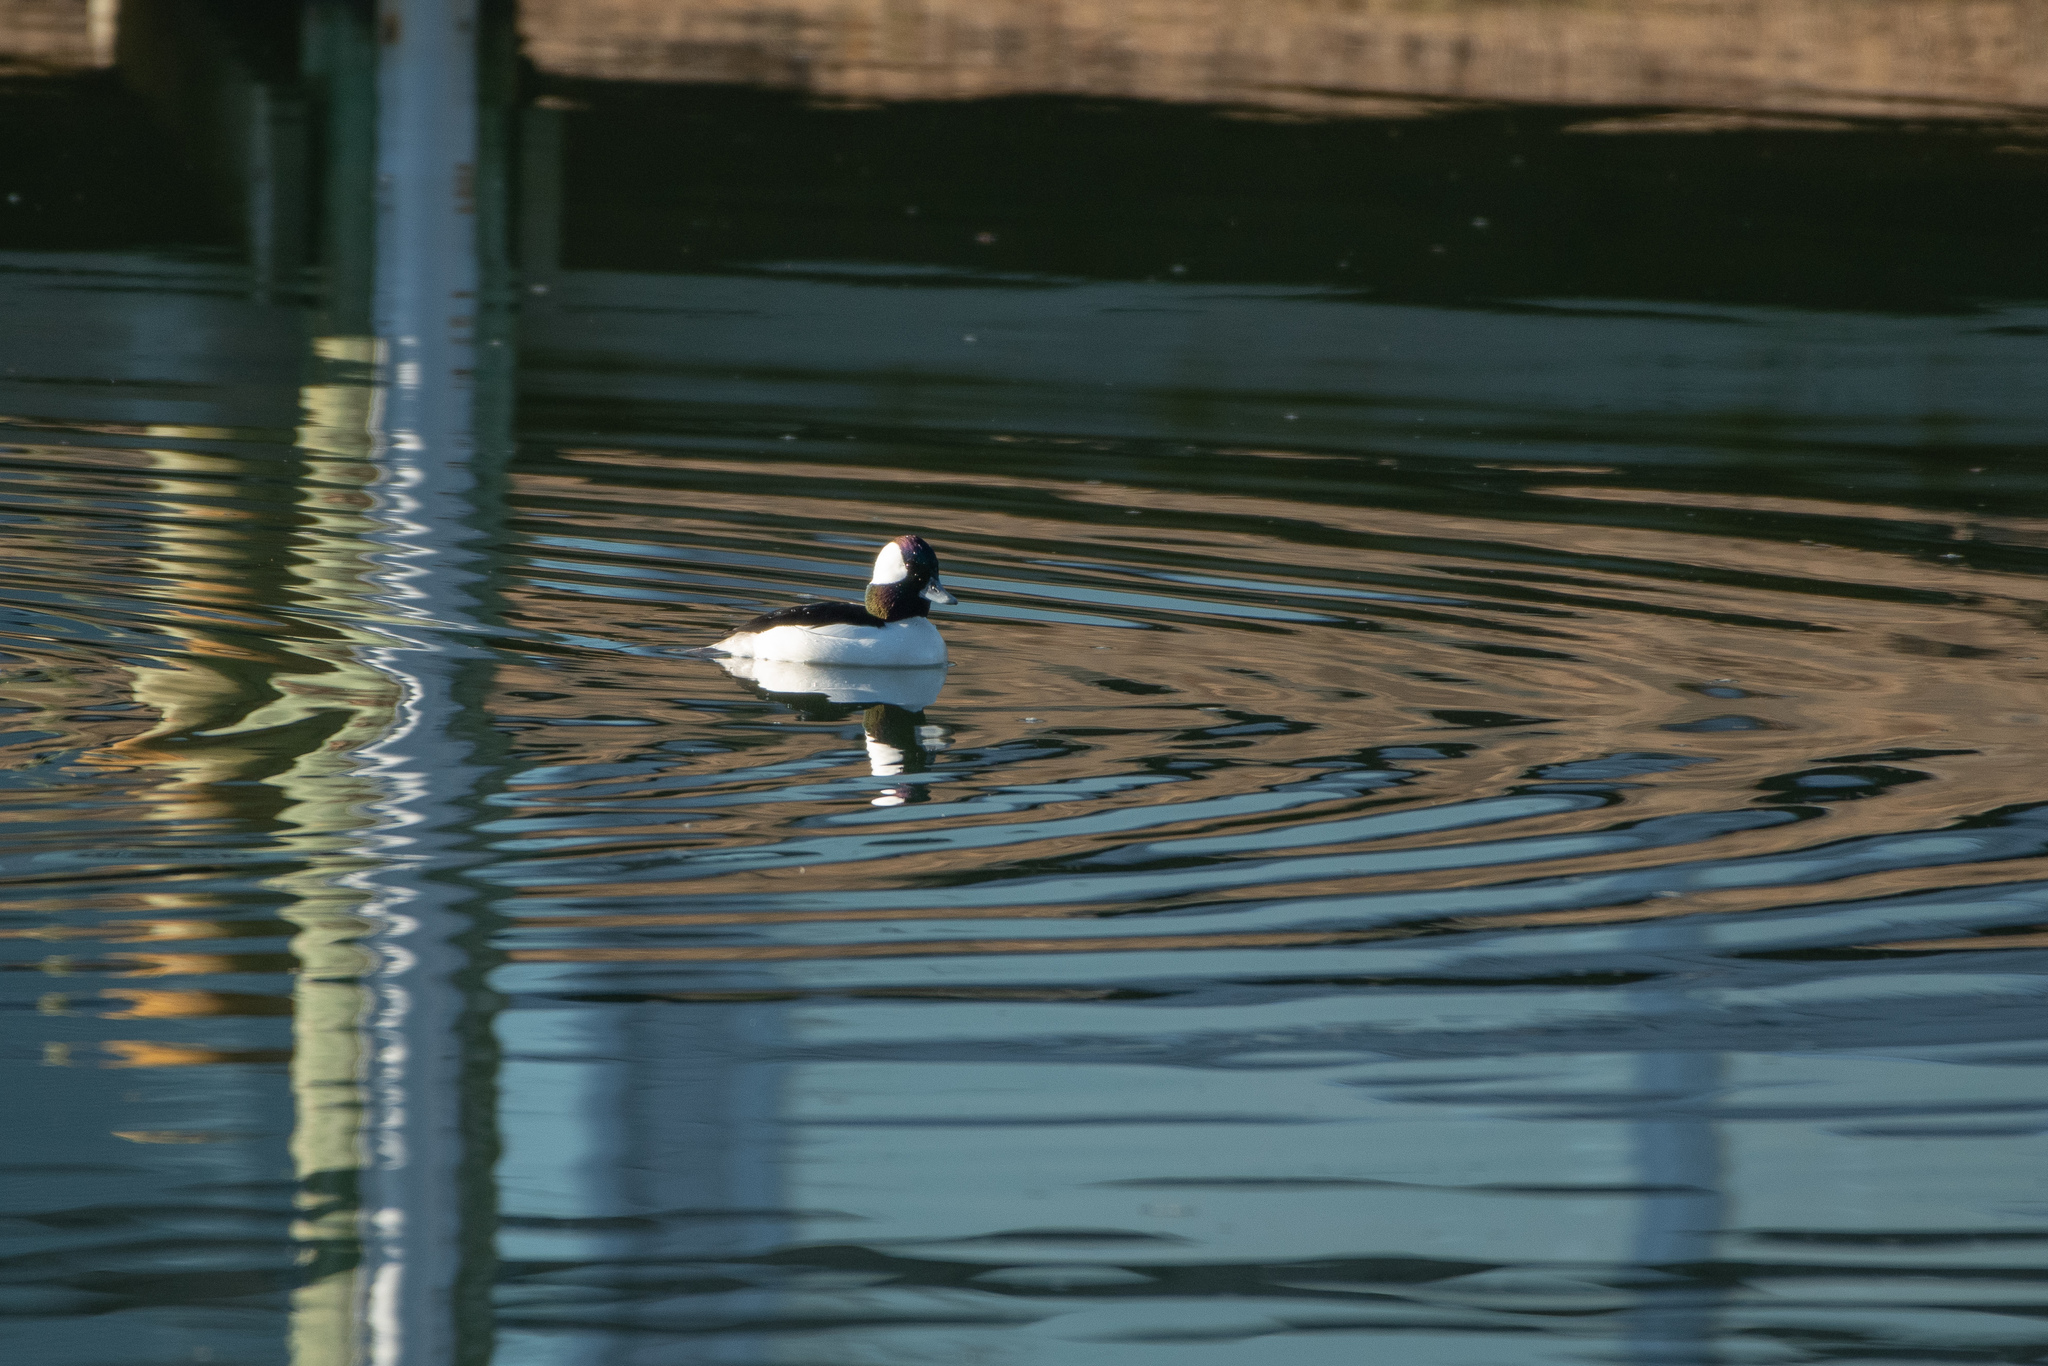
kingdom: Animalia
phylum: Chordata
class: Aves
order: Anseriformes
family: Anatidae
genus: Bucephala
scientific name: Bucephala albeola
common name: Bufflehead
